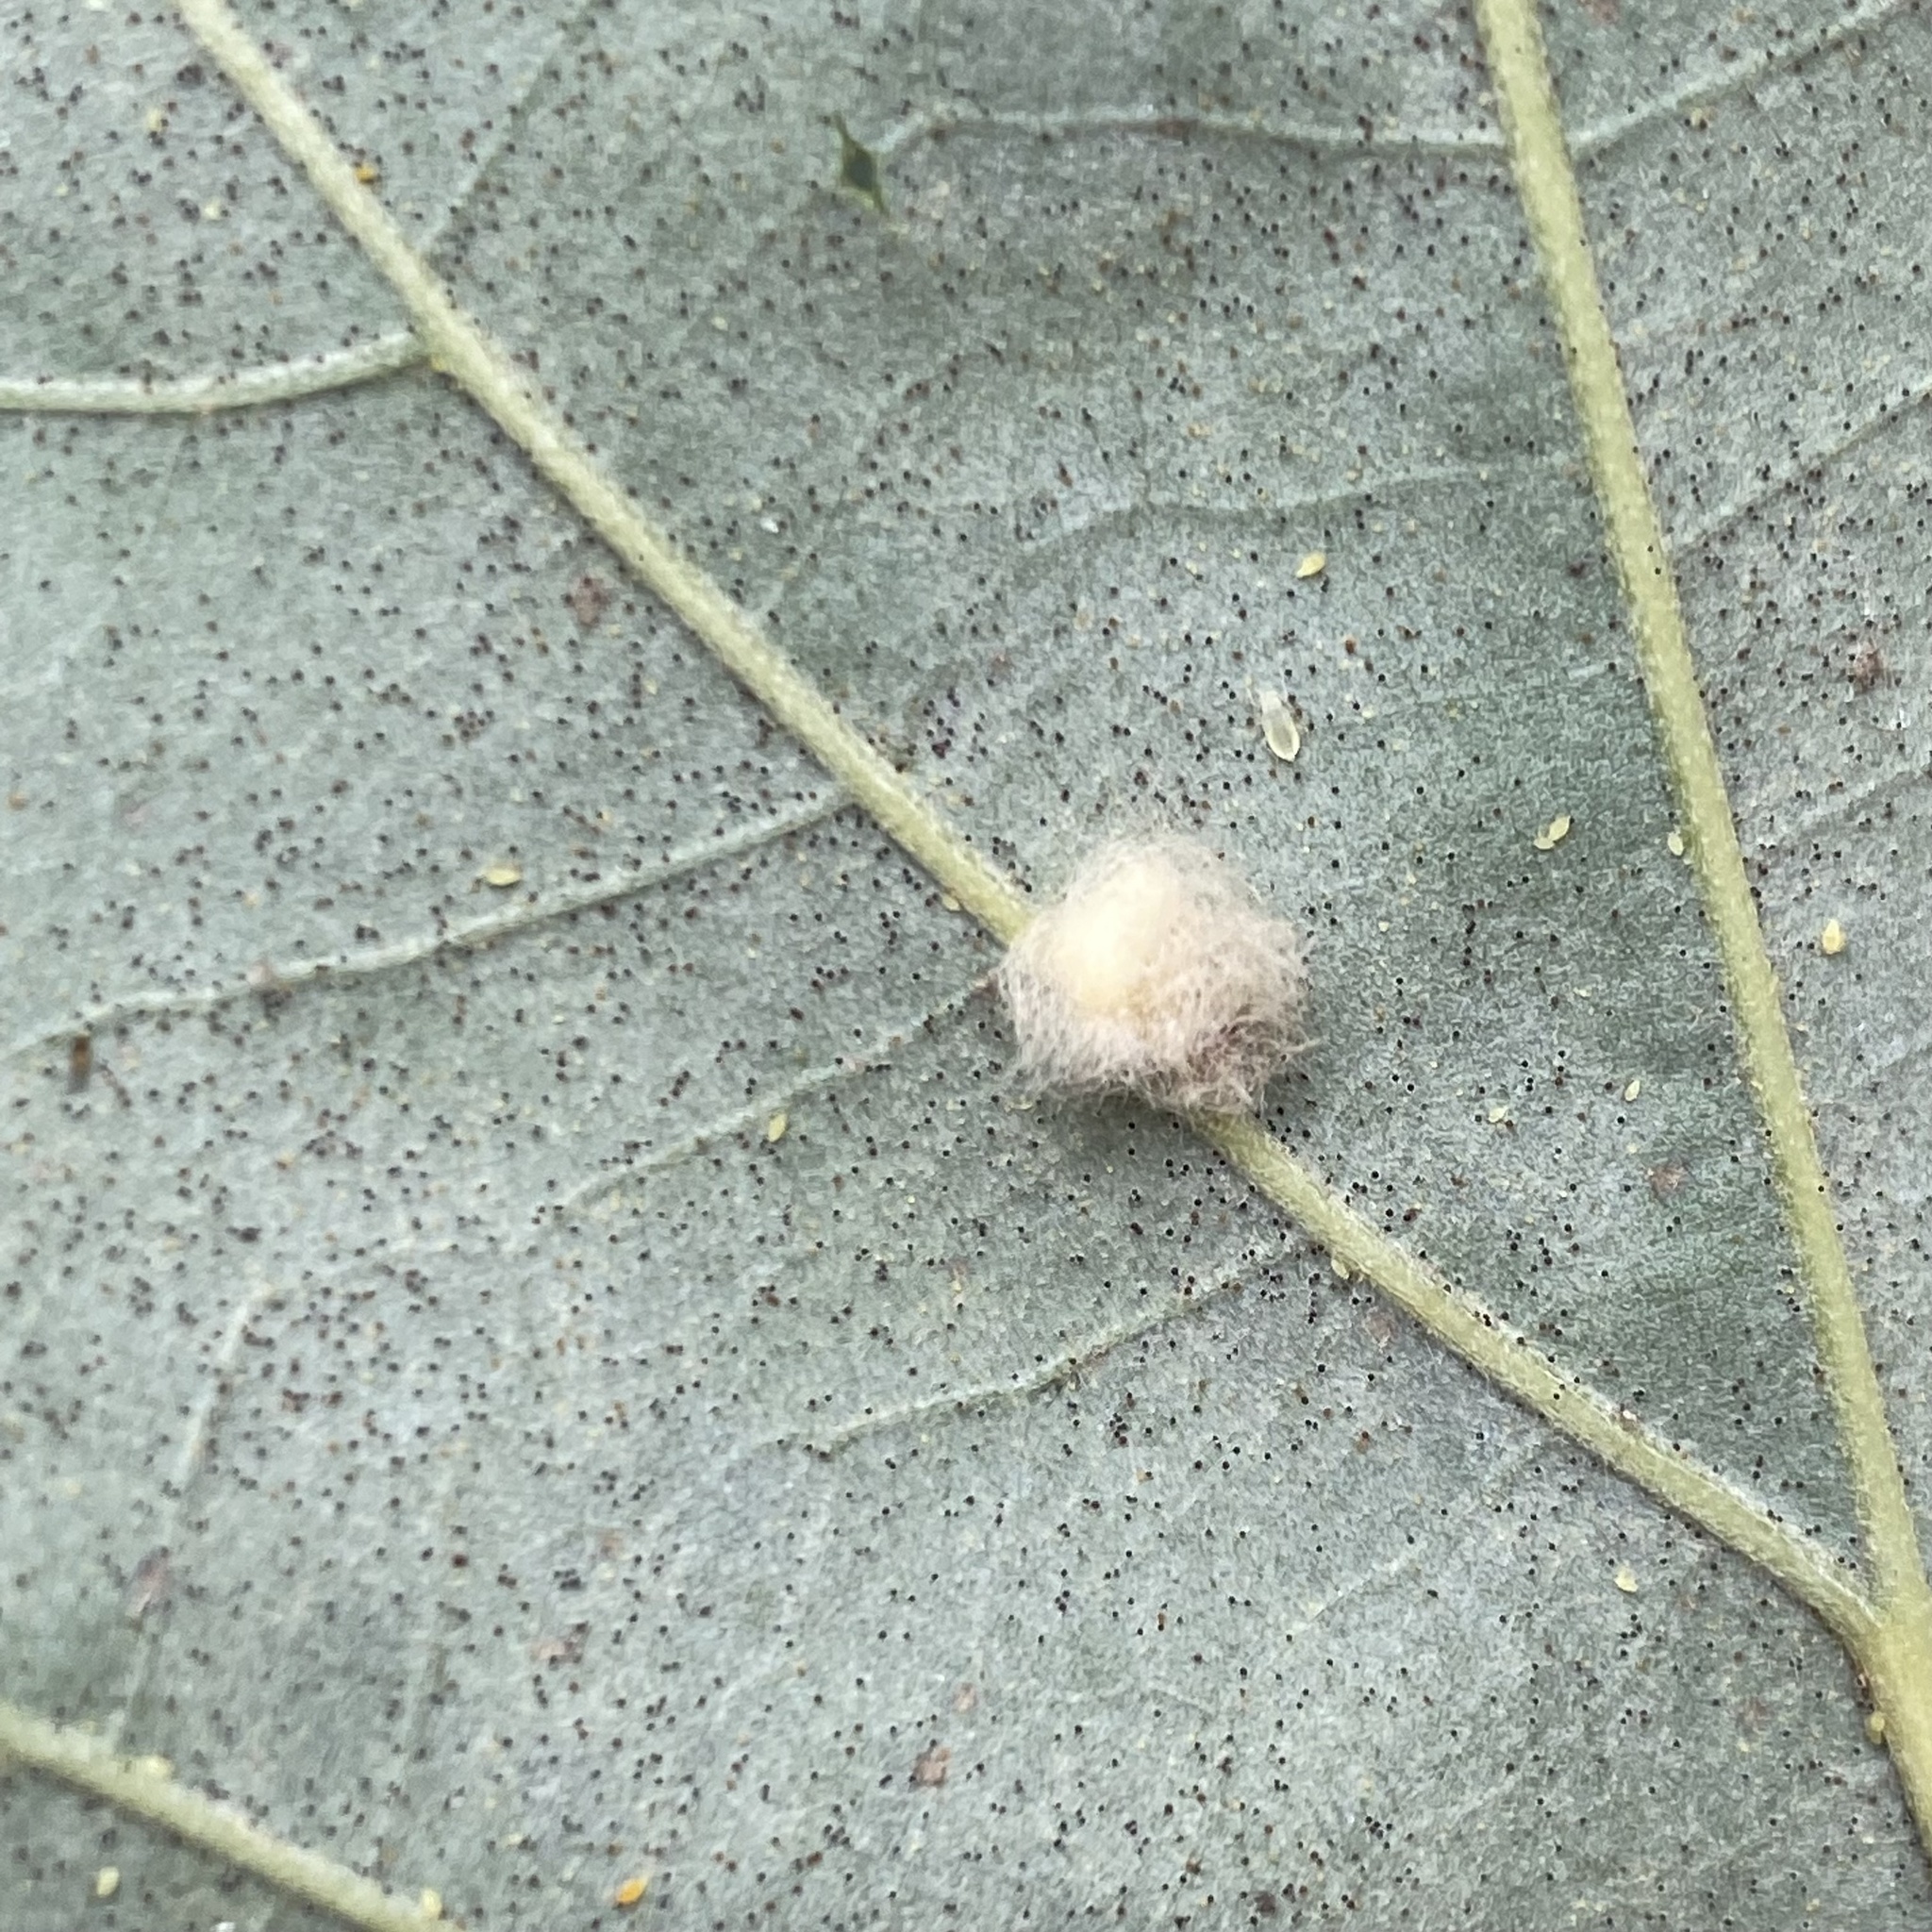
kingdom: Animalia
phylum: Arthropoda
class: Insecta
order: Hymenoptera
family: Cynipidae
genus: Andricus
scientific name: Andricus Druon ignotum
